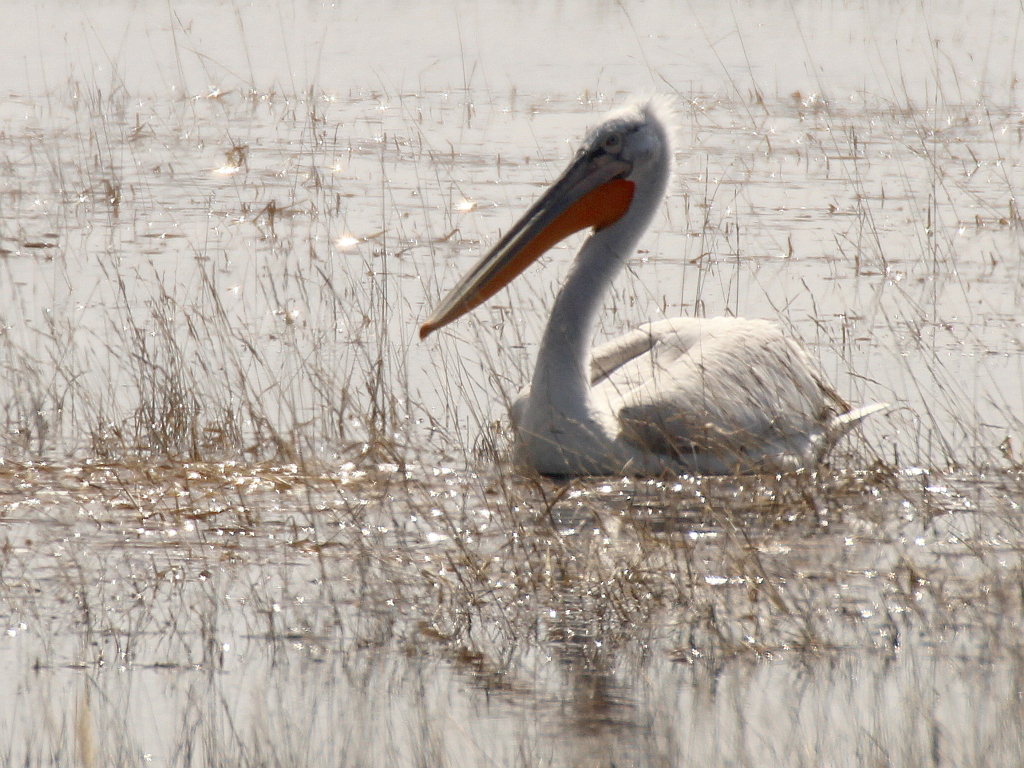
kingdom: Animalia
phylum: Chordata
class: Aves
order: Pelecaniformes
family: Pelecanidae
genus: Pelecanus
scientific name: Pelecanus crispus
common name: Dalmatian pelican
